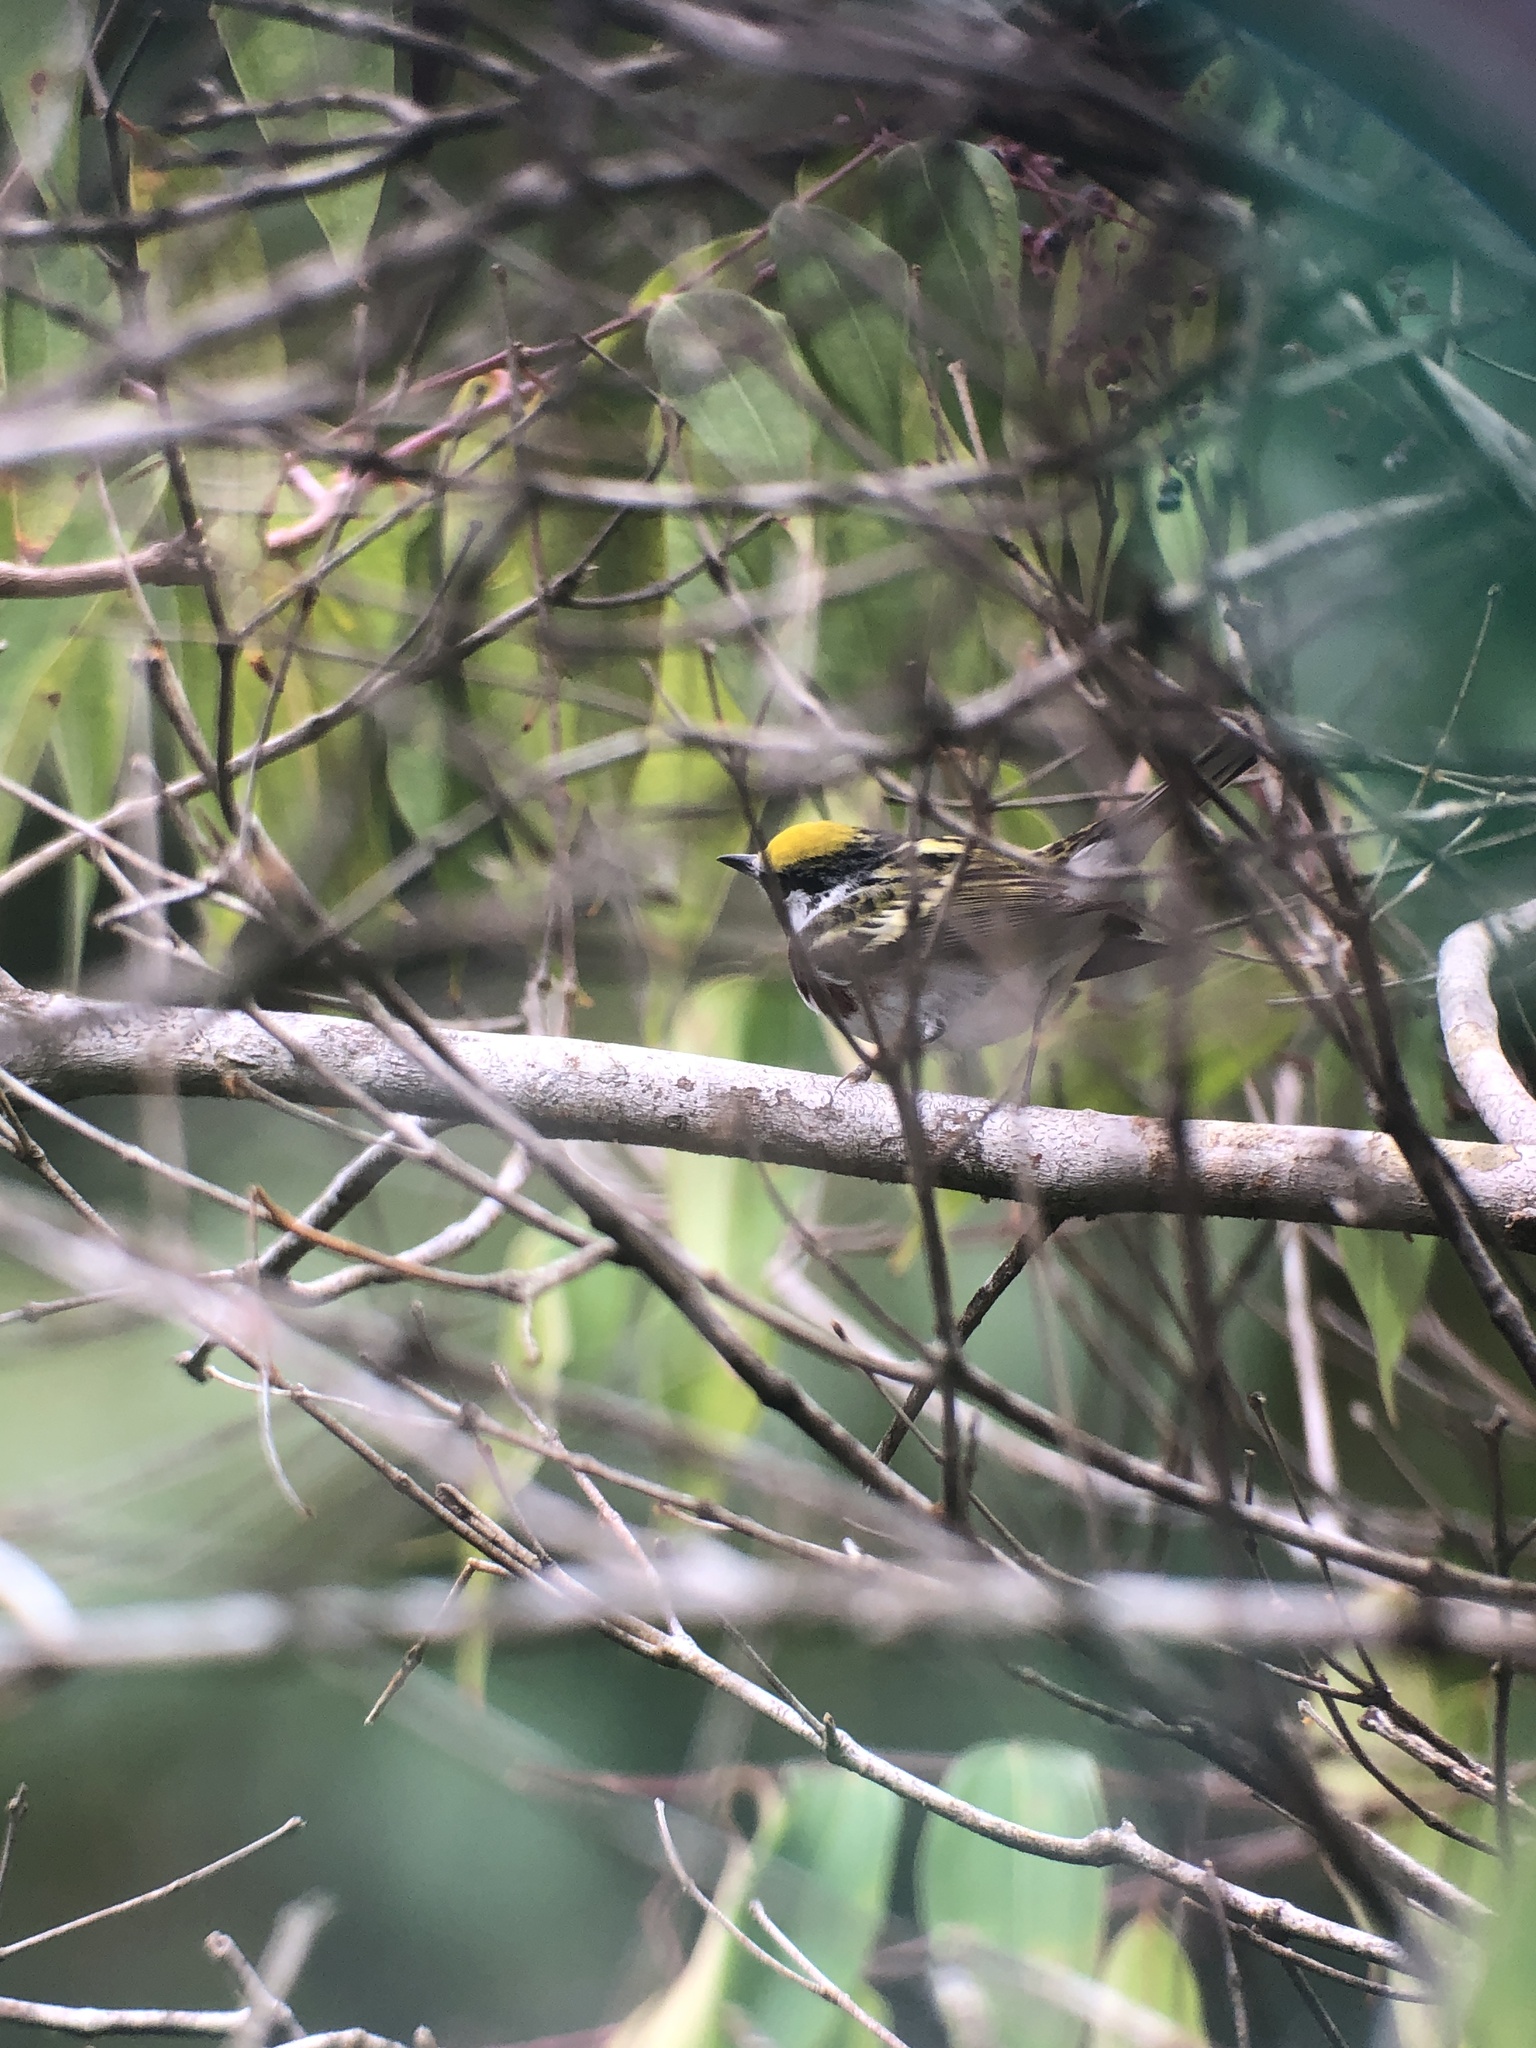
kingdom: Animalia
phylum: Chordata
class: Aves
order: Passeriformes
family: Parulidae
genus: Setophaga
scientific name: Setophaga pensylvanica
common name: Chestnut-sided warbler
